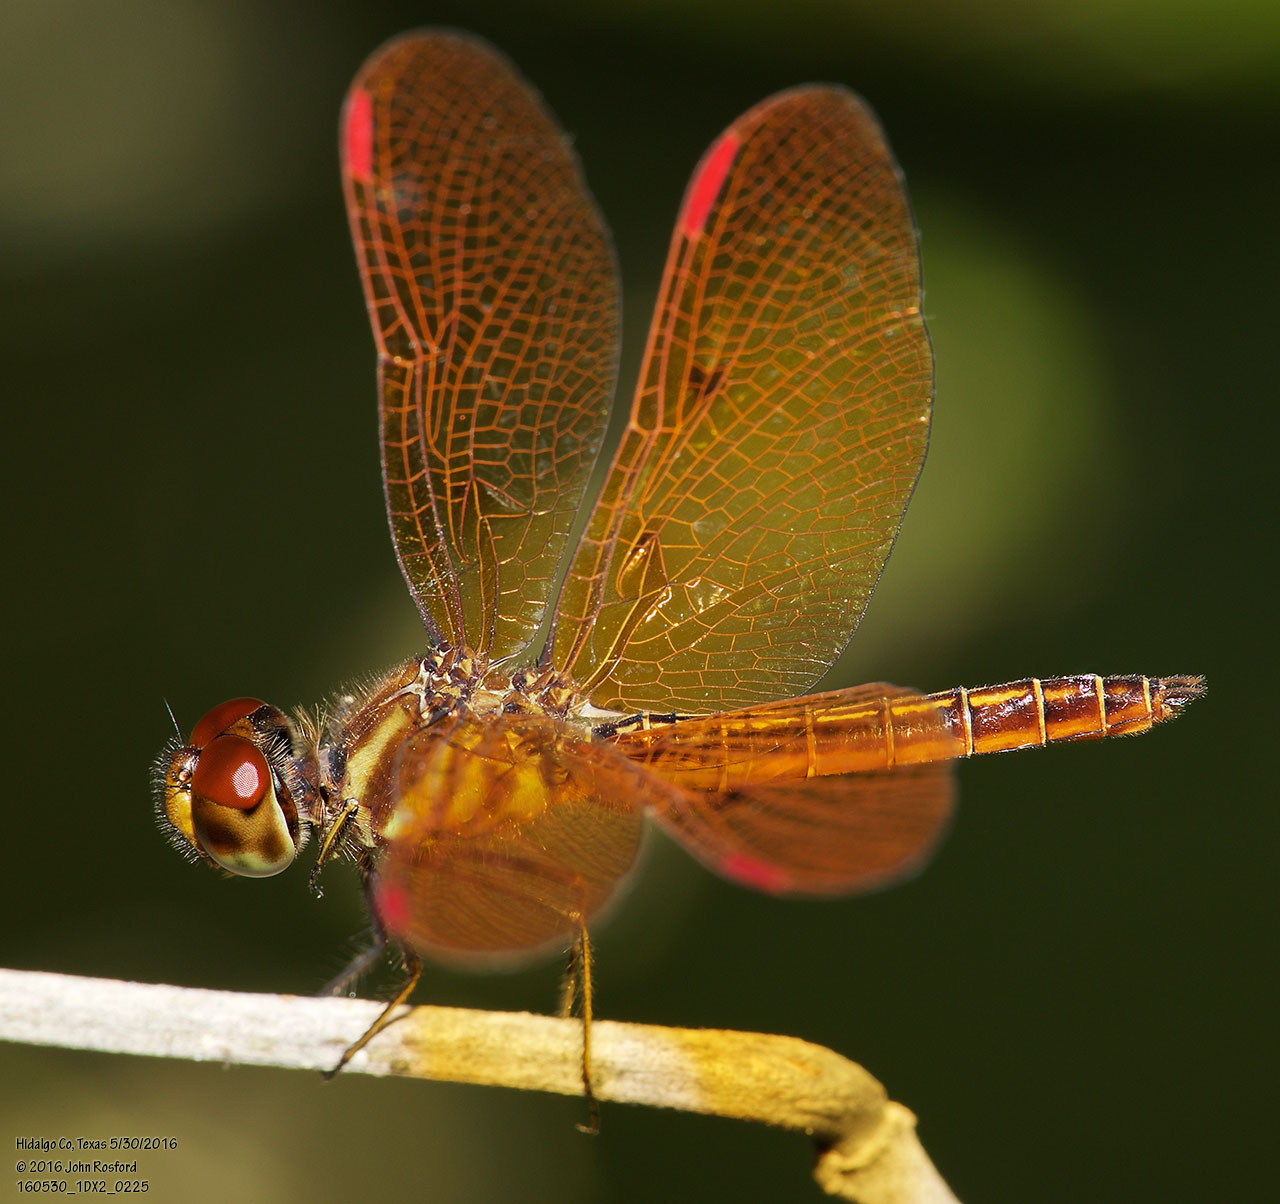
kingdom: Animalia
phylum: Arthropoda
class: Insecta
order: Odonata
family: Libellulidae
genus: Perithemis
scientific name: Perithemis domitia
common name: Slough amberwing
